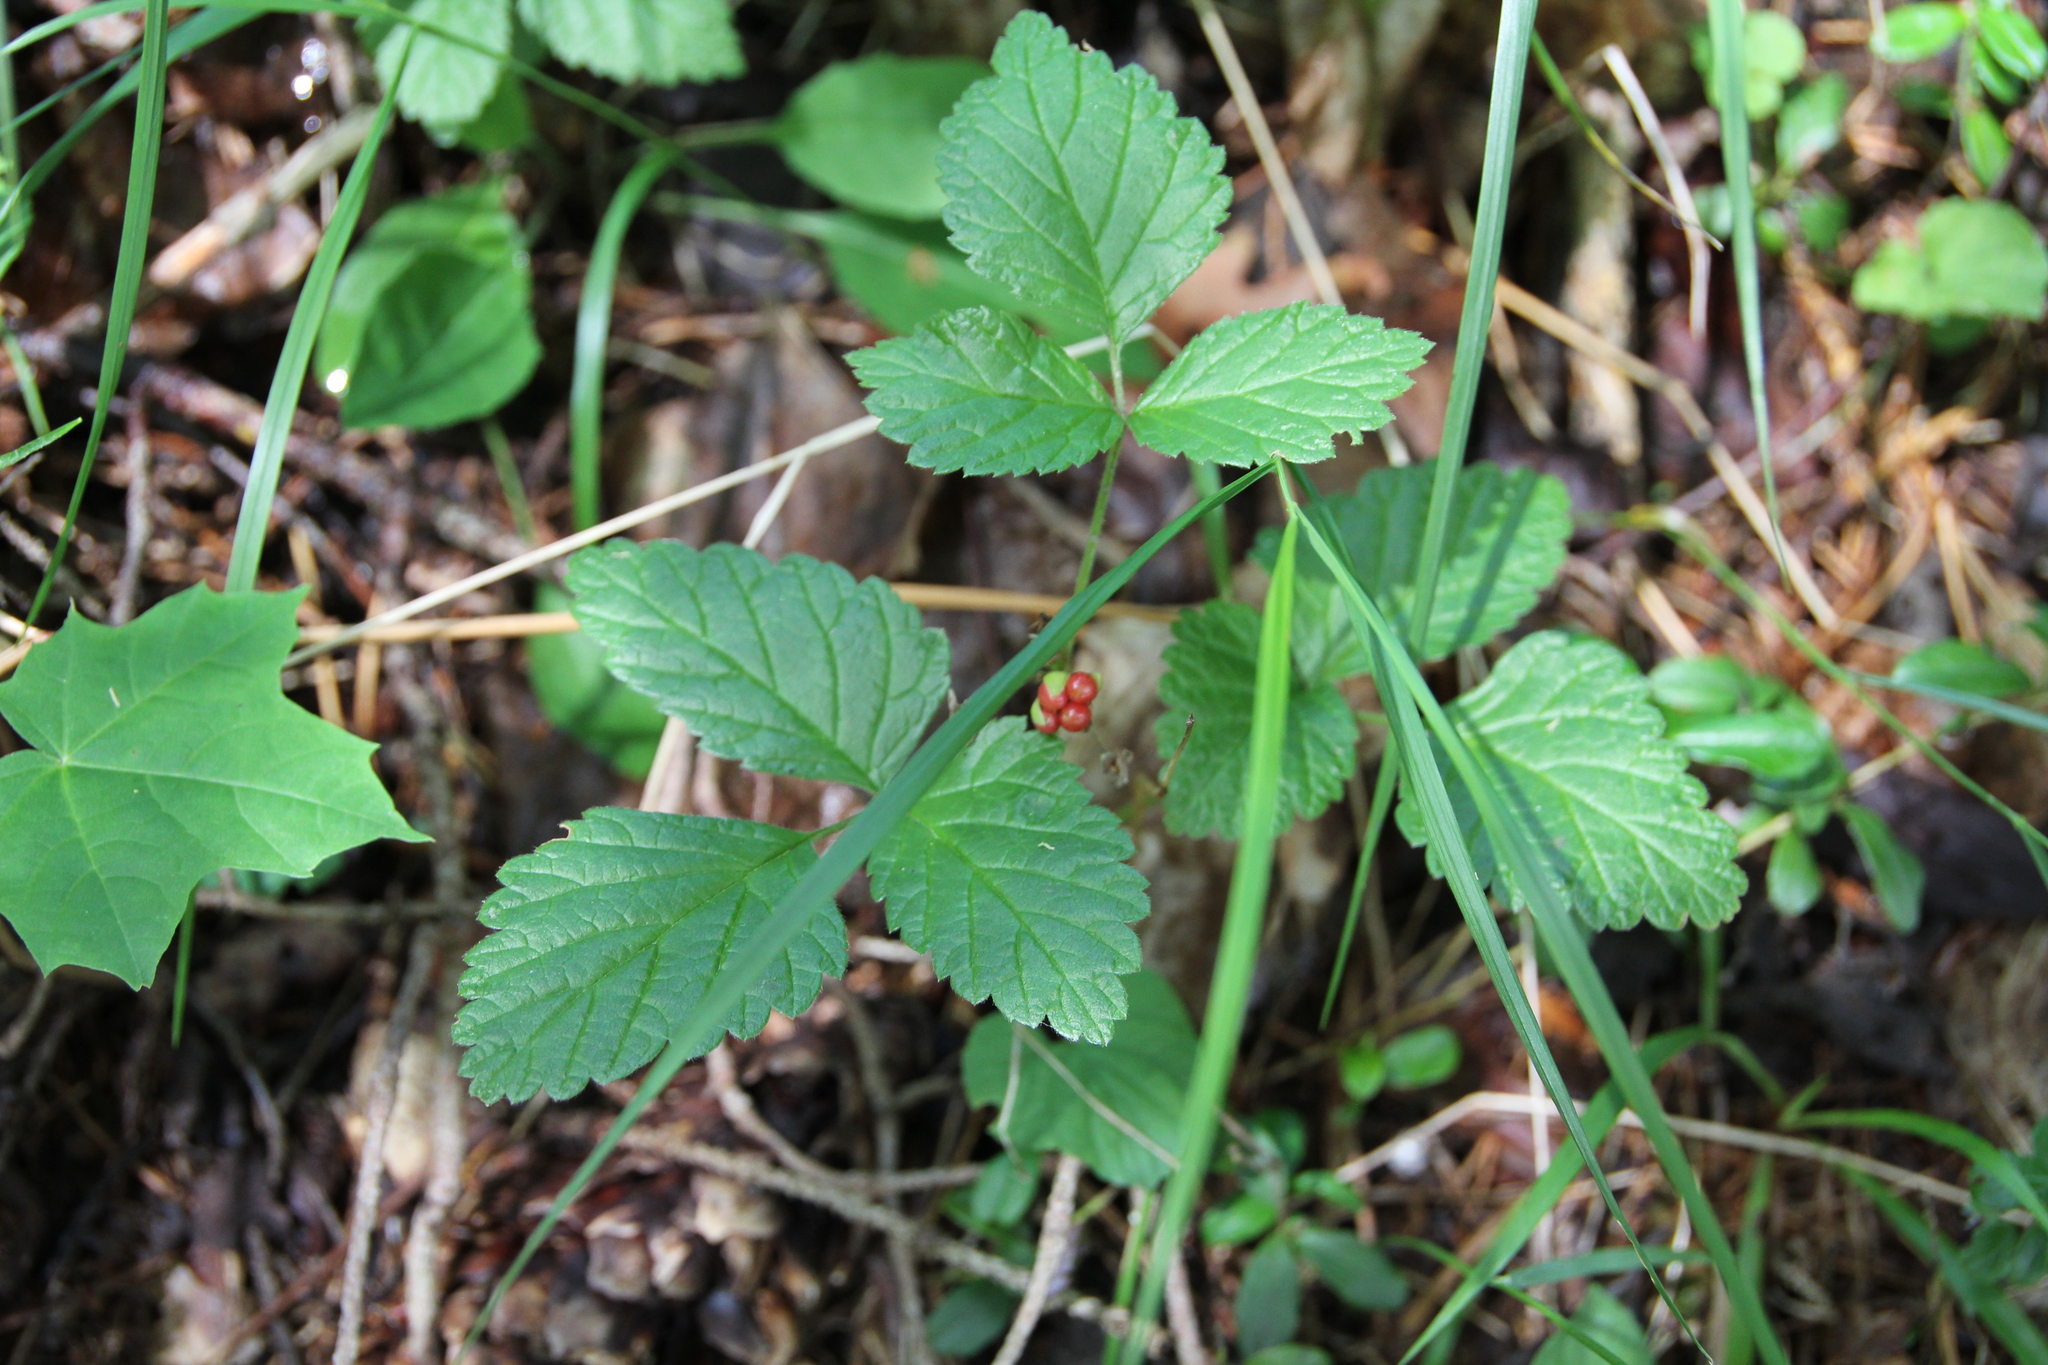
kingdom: Plantae
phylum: Tracheophyta
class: Magnoliopsida
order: Rosales
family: Rosaceae
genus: Rubus
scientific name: Rubus saxatilis
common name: Stone bramble
